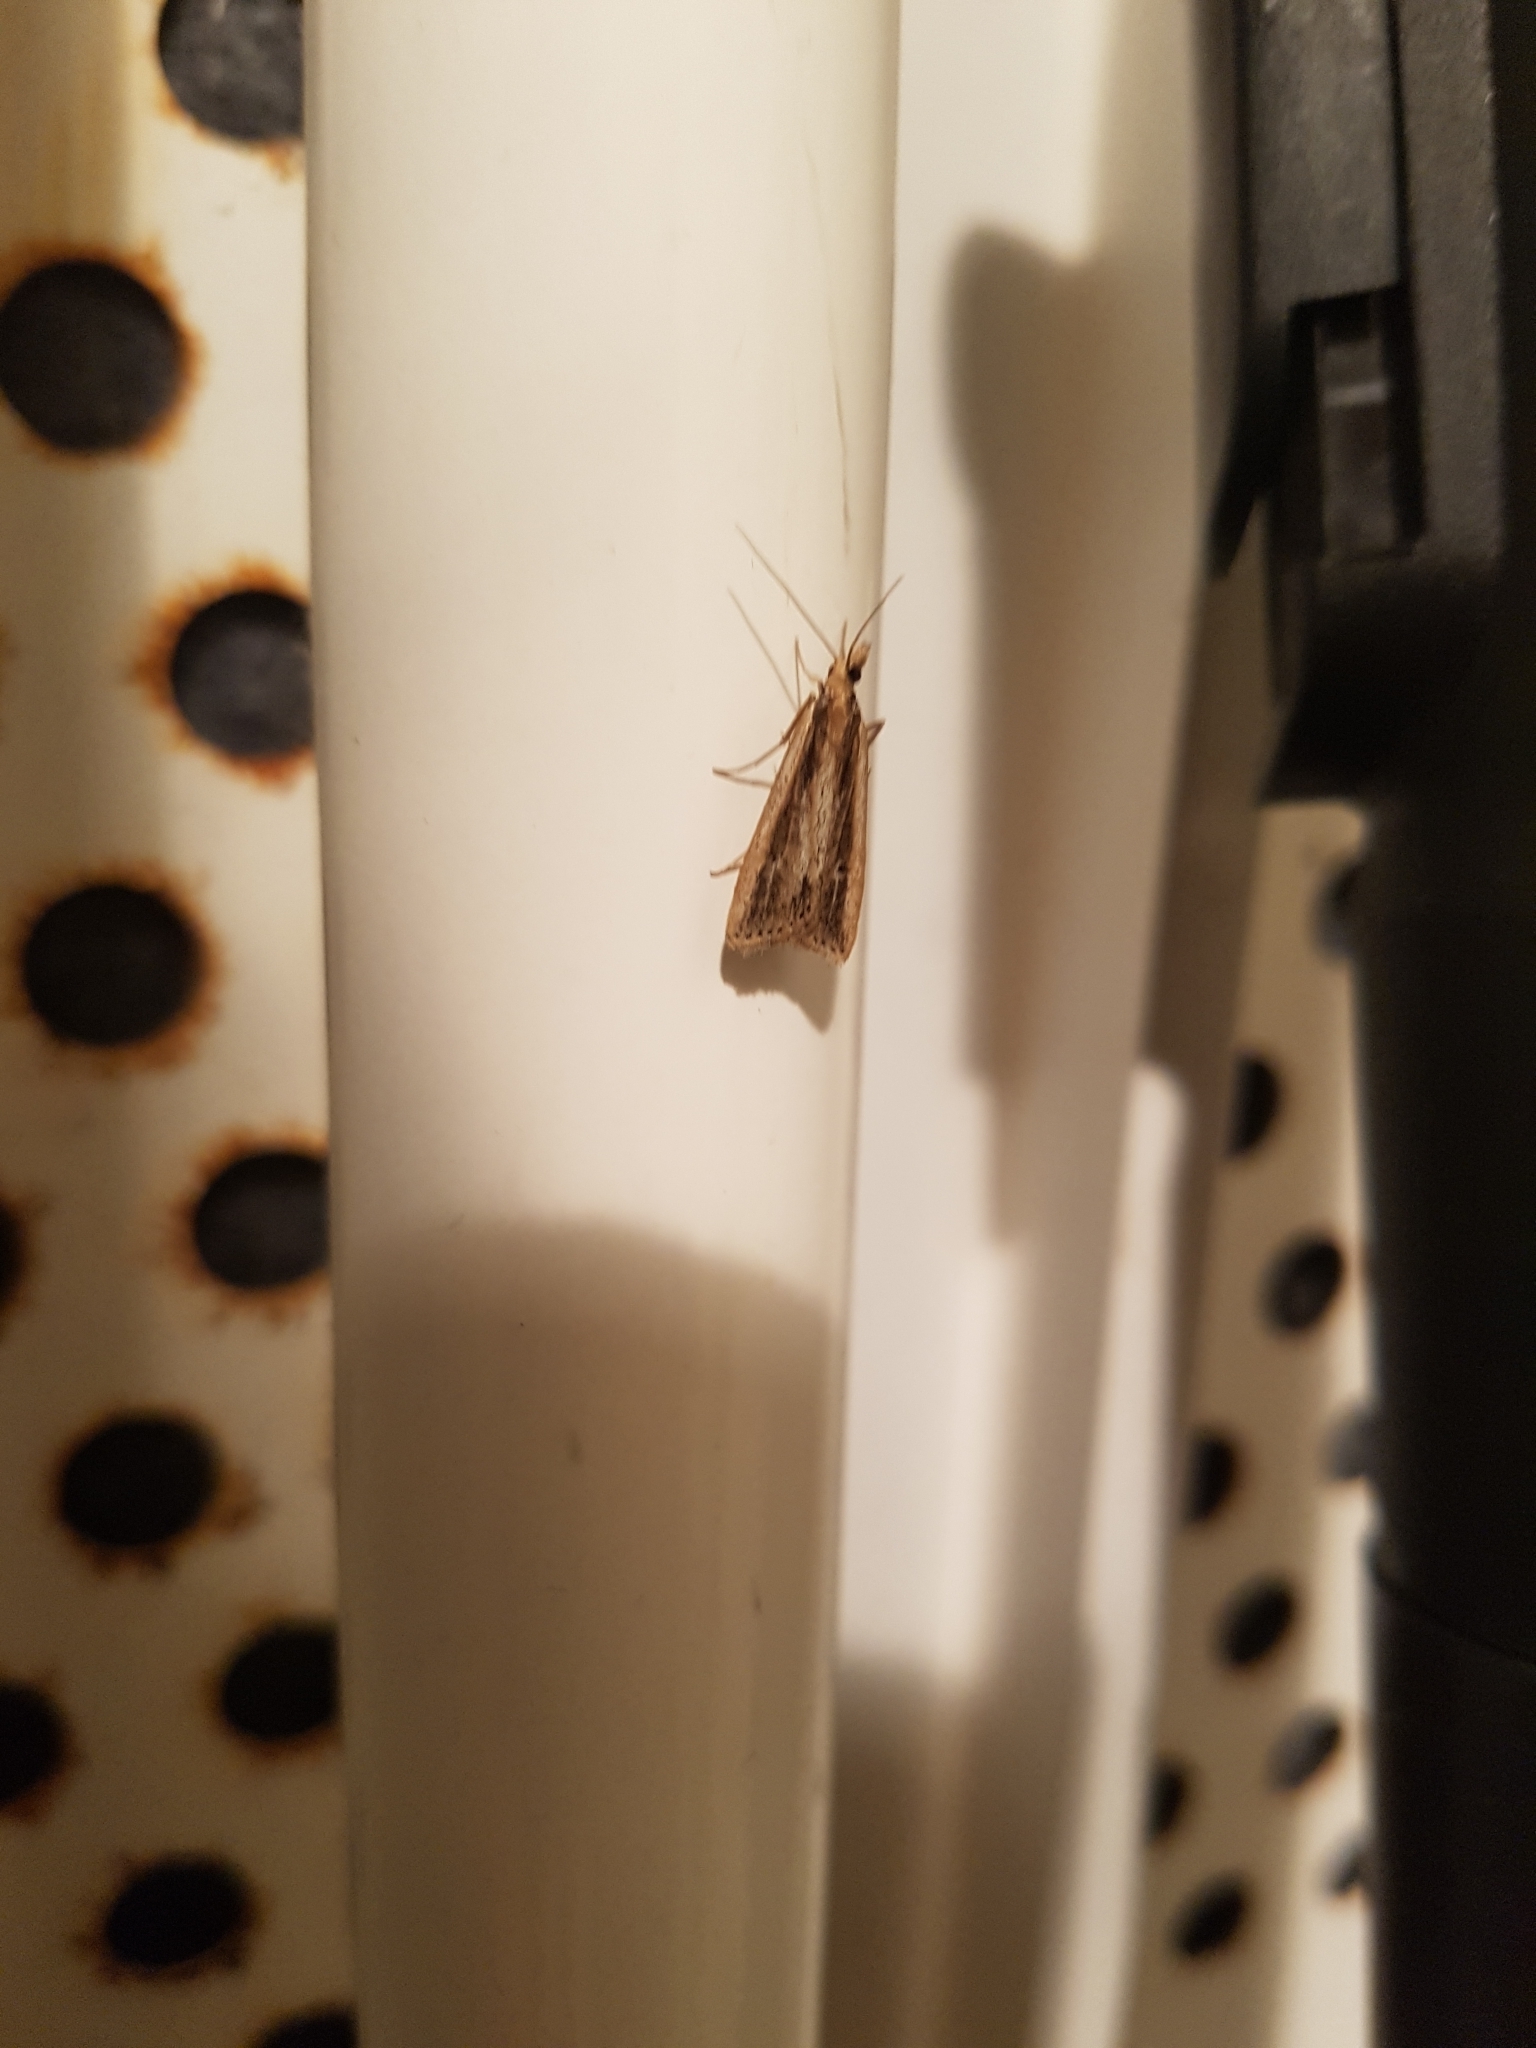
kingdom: Animalia
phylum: Arthropoda
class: Insecta
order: Lepidoptera
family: Crambidae
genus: Eudonia
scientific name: Eudonia sabulosella
